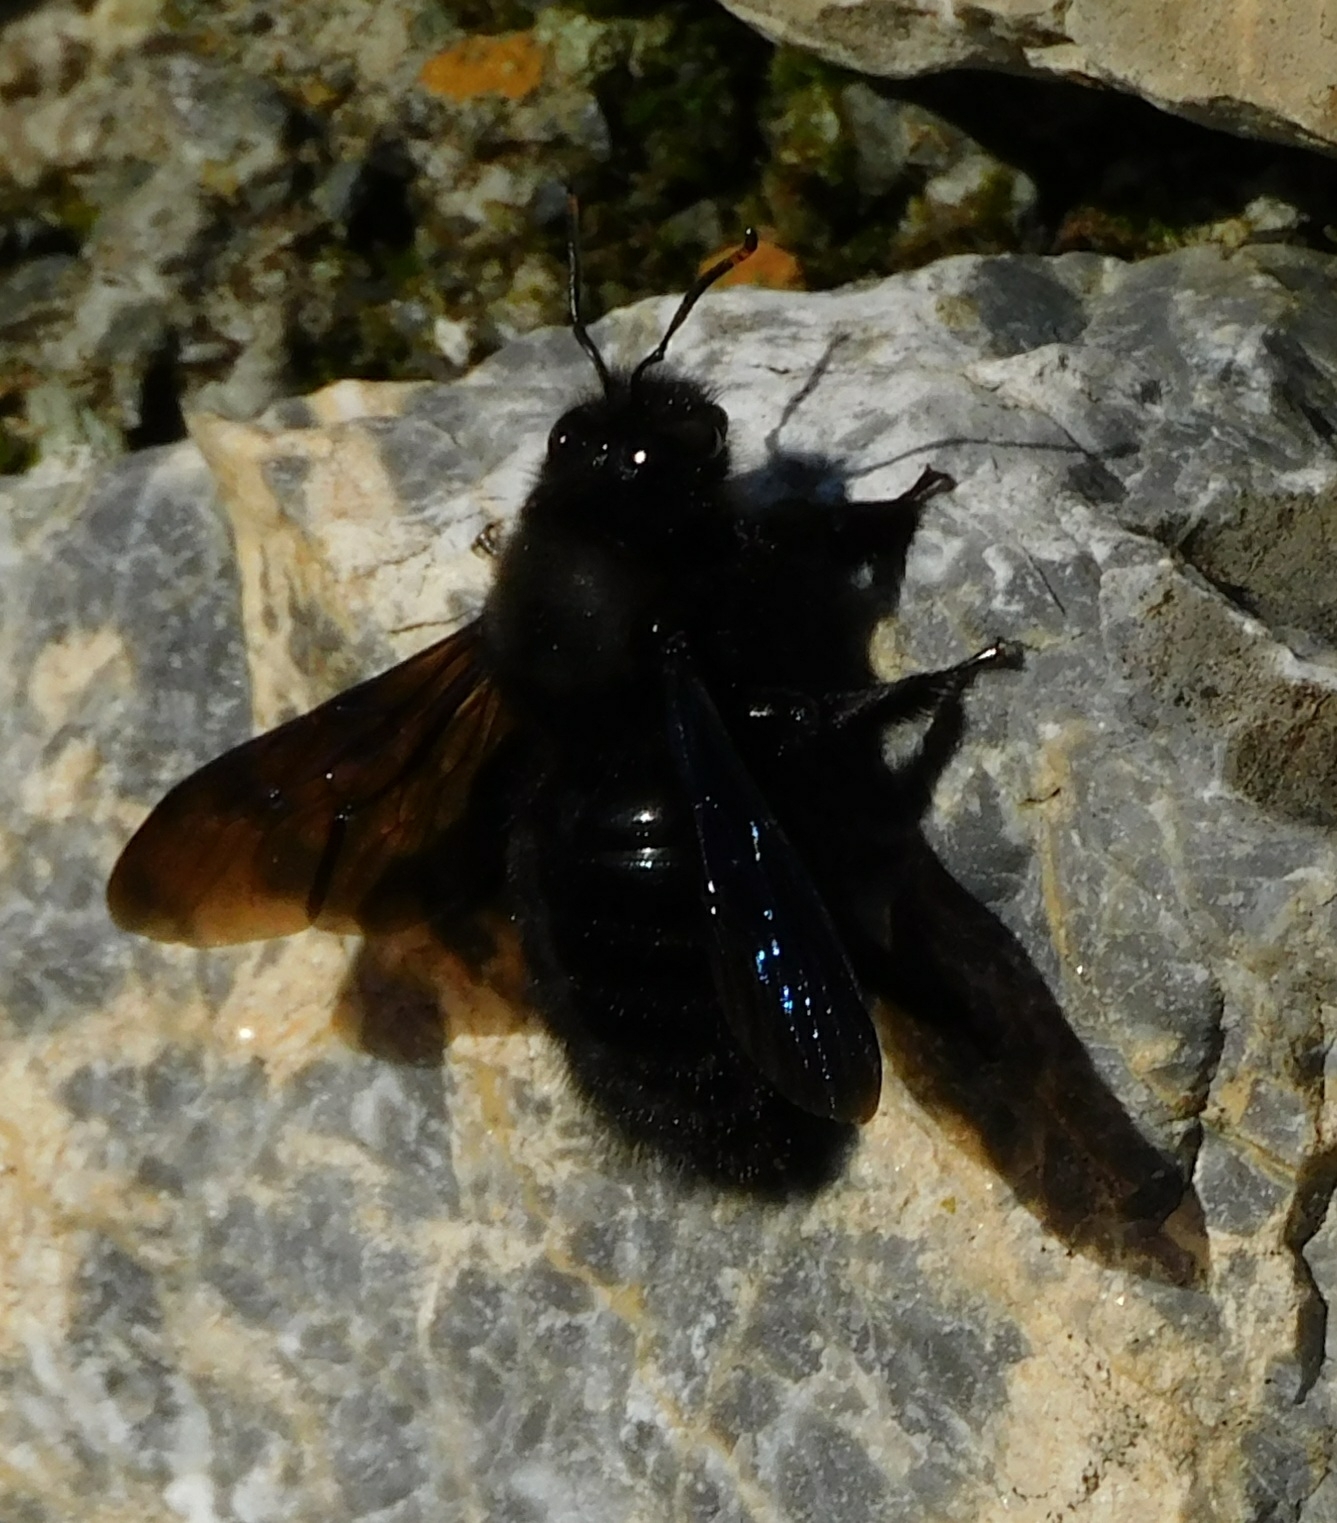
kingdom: Animalia
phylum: Arthropoda
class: Insecta
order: Hymenoptera
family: Apidae
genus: Xylocopa
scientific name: Xylocopa violacea
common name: Violet carpenter bee
